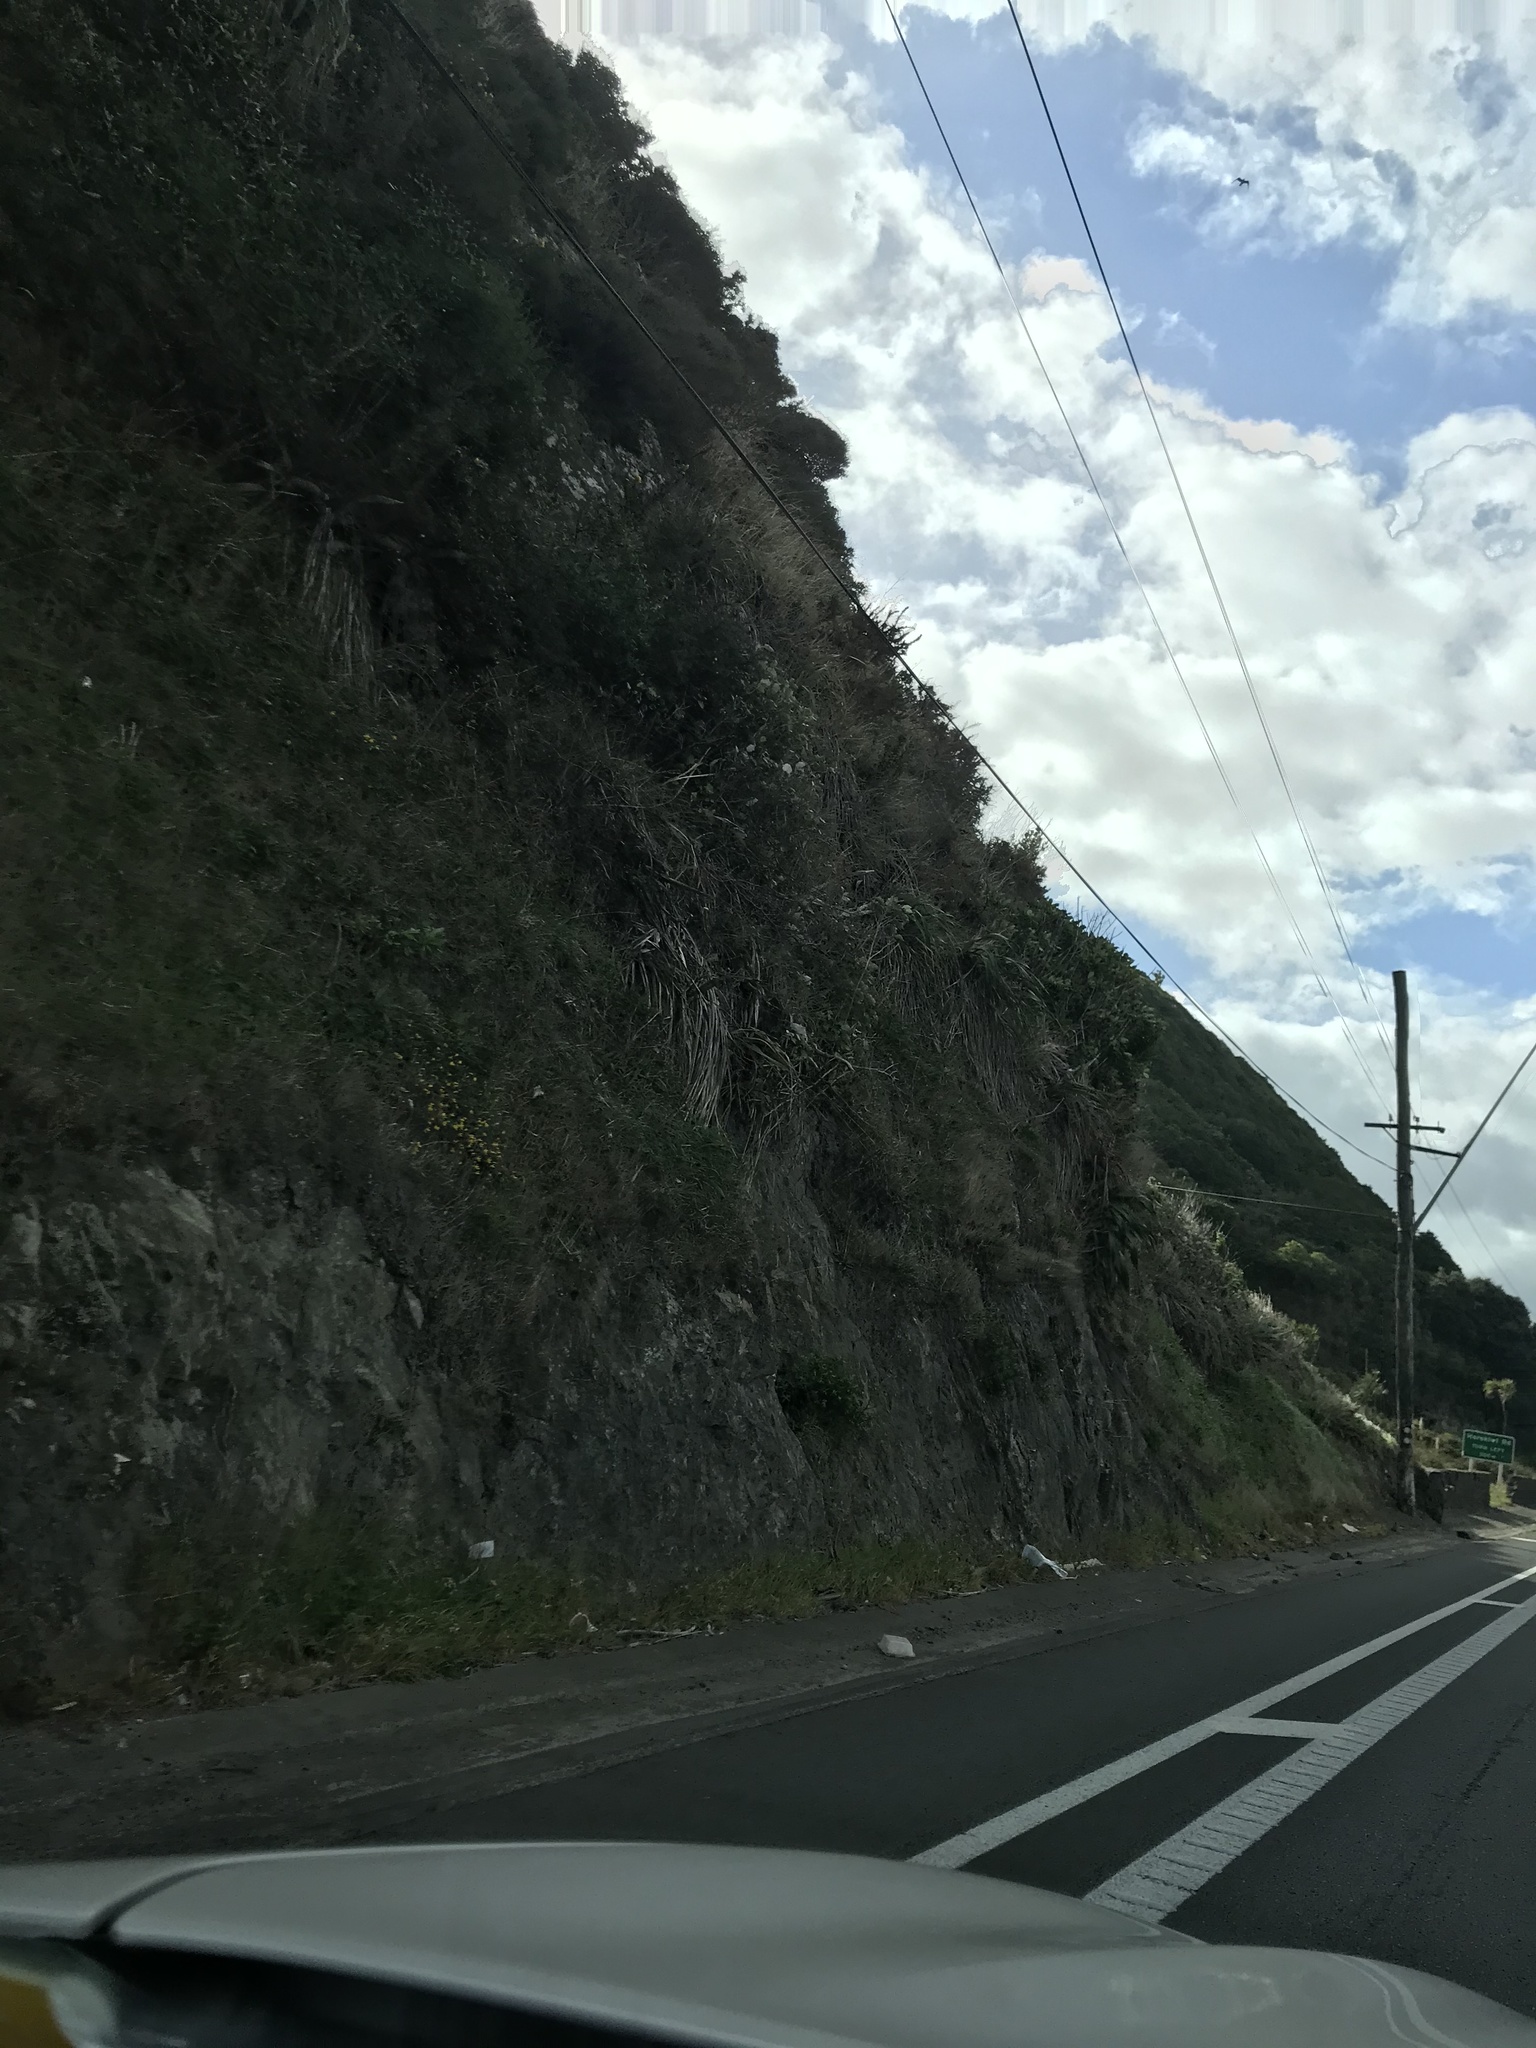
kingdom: Plantae
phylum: Tracheophyta
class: Magnoliopsida
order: Asterales
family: Asteraceae
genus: Brachyglottis
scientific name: Brachyglottis repanda
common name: Hedge ragwort
